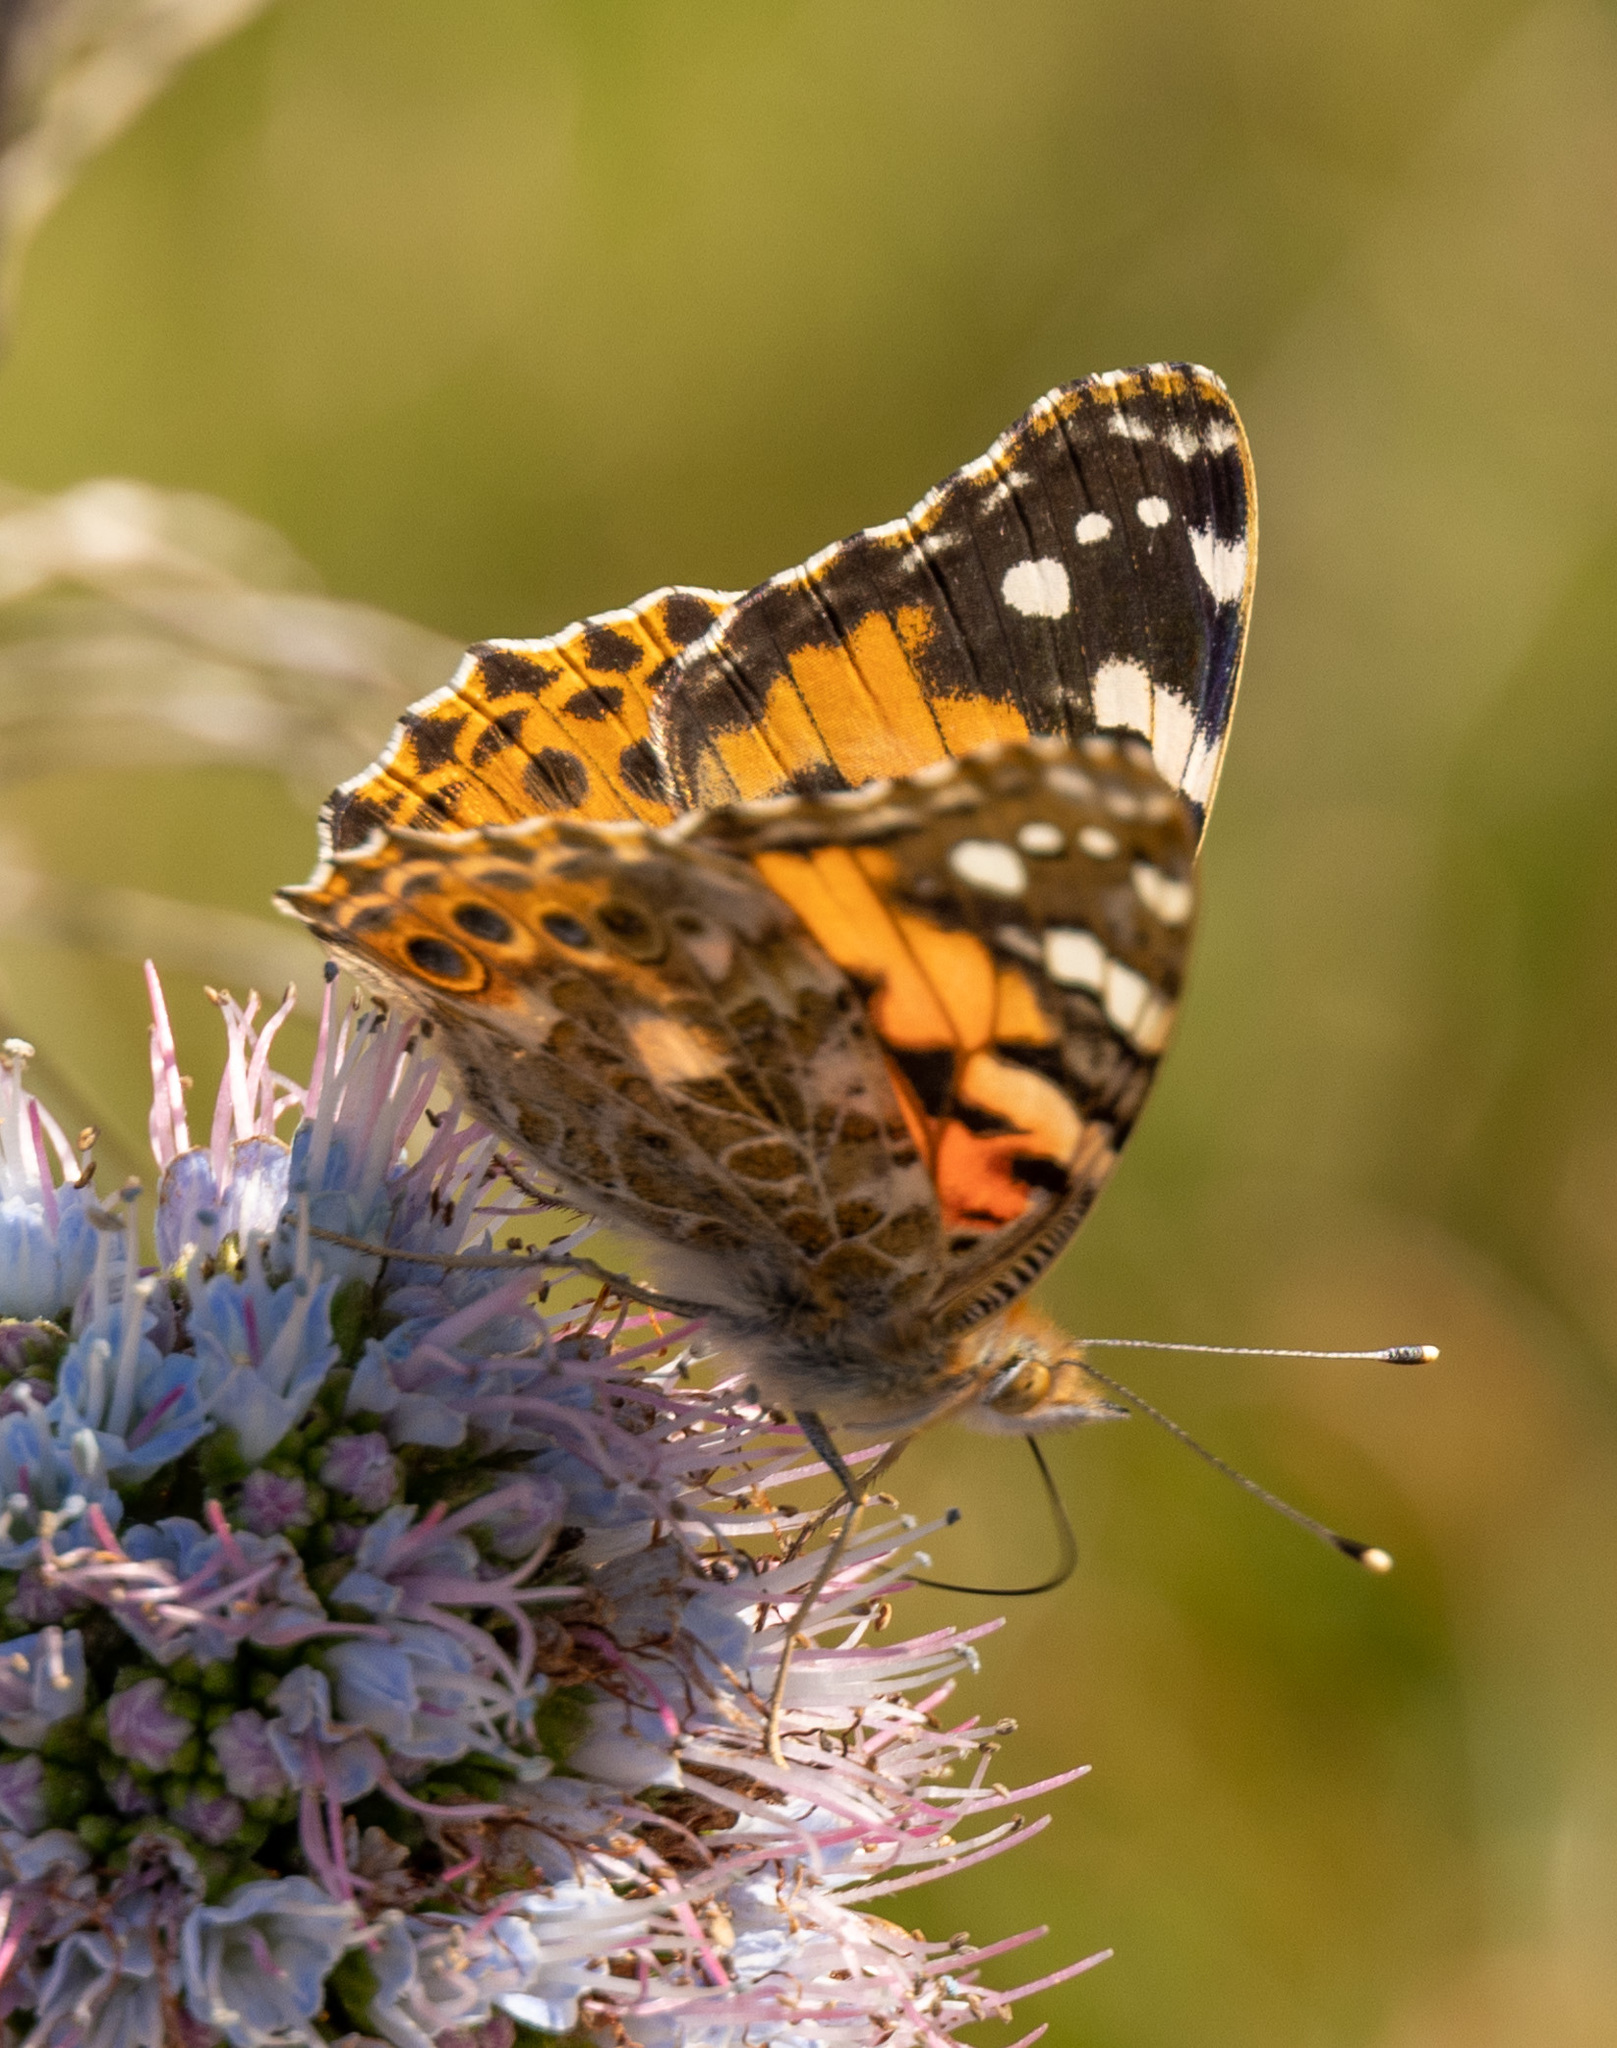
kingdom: Animalia
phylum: Arthropoda
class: Insecta
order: Lepidoptera
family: Nymphalidae
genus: Vanessa
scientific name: Vanessa cardui
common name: Painted lady
